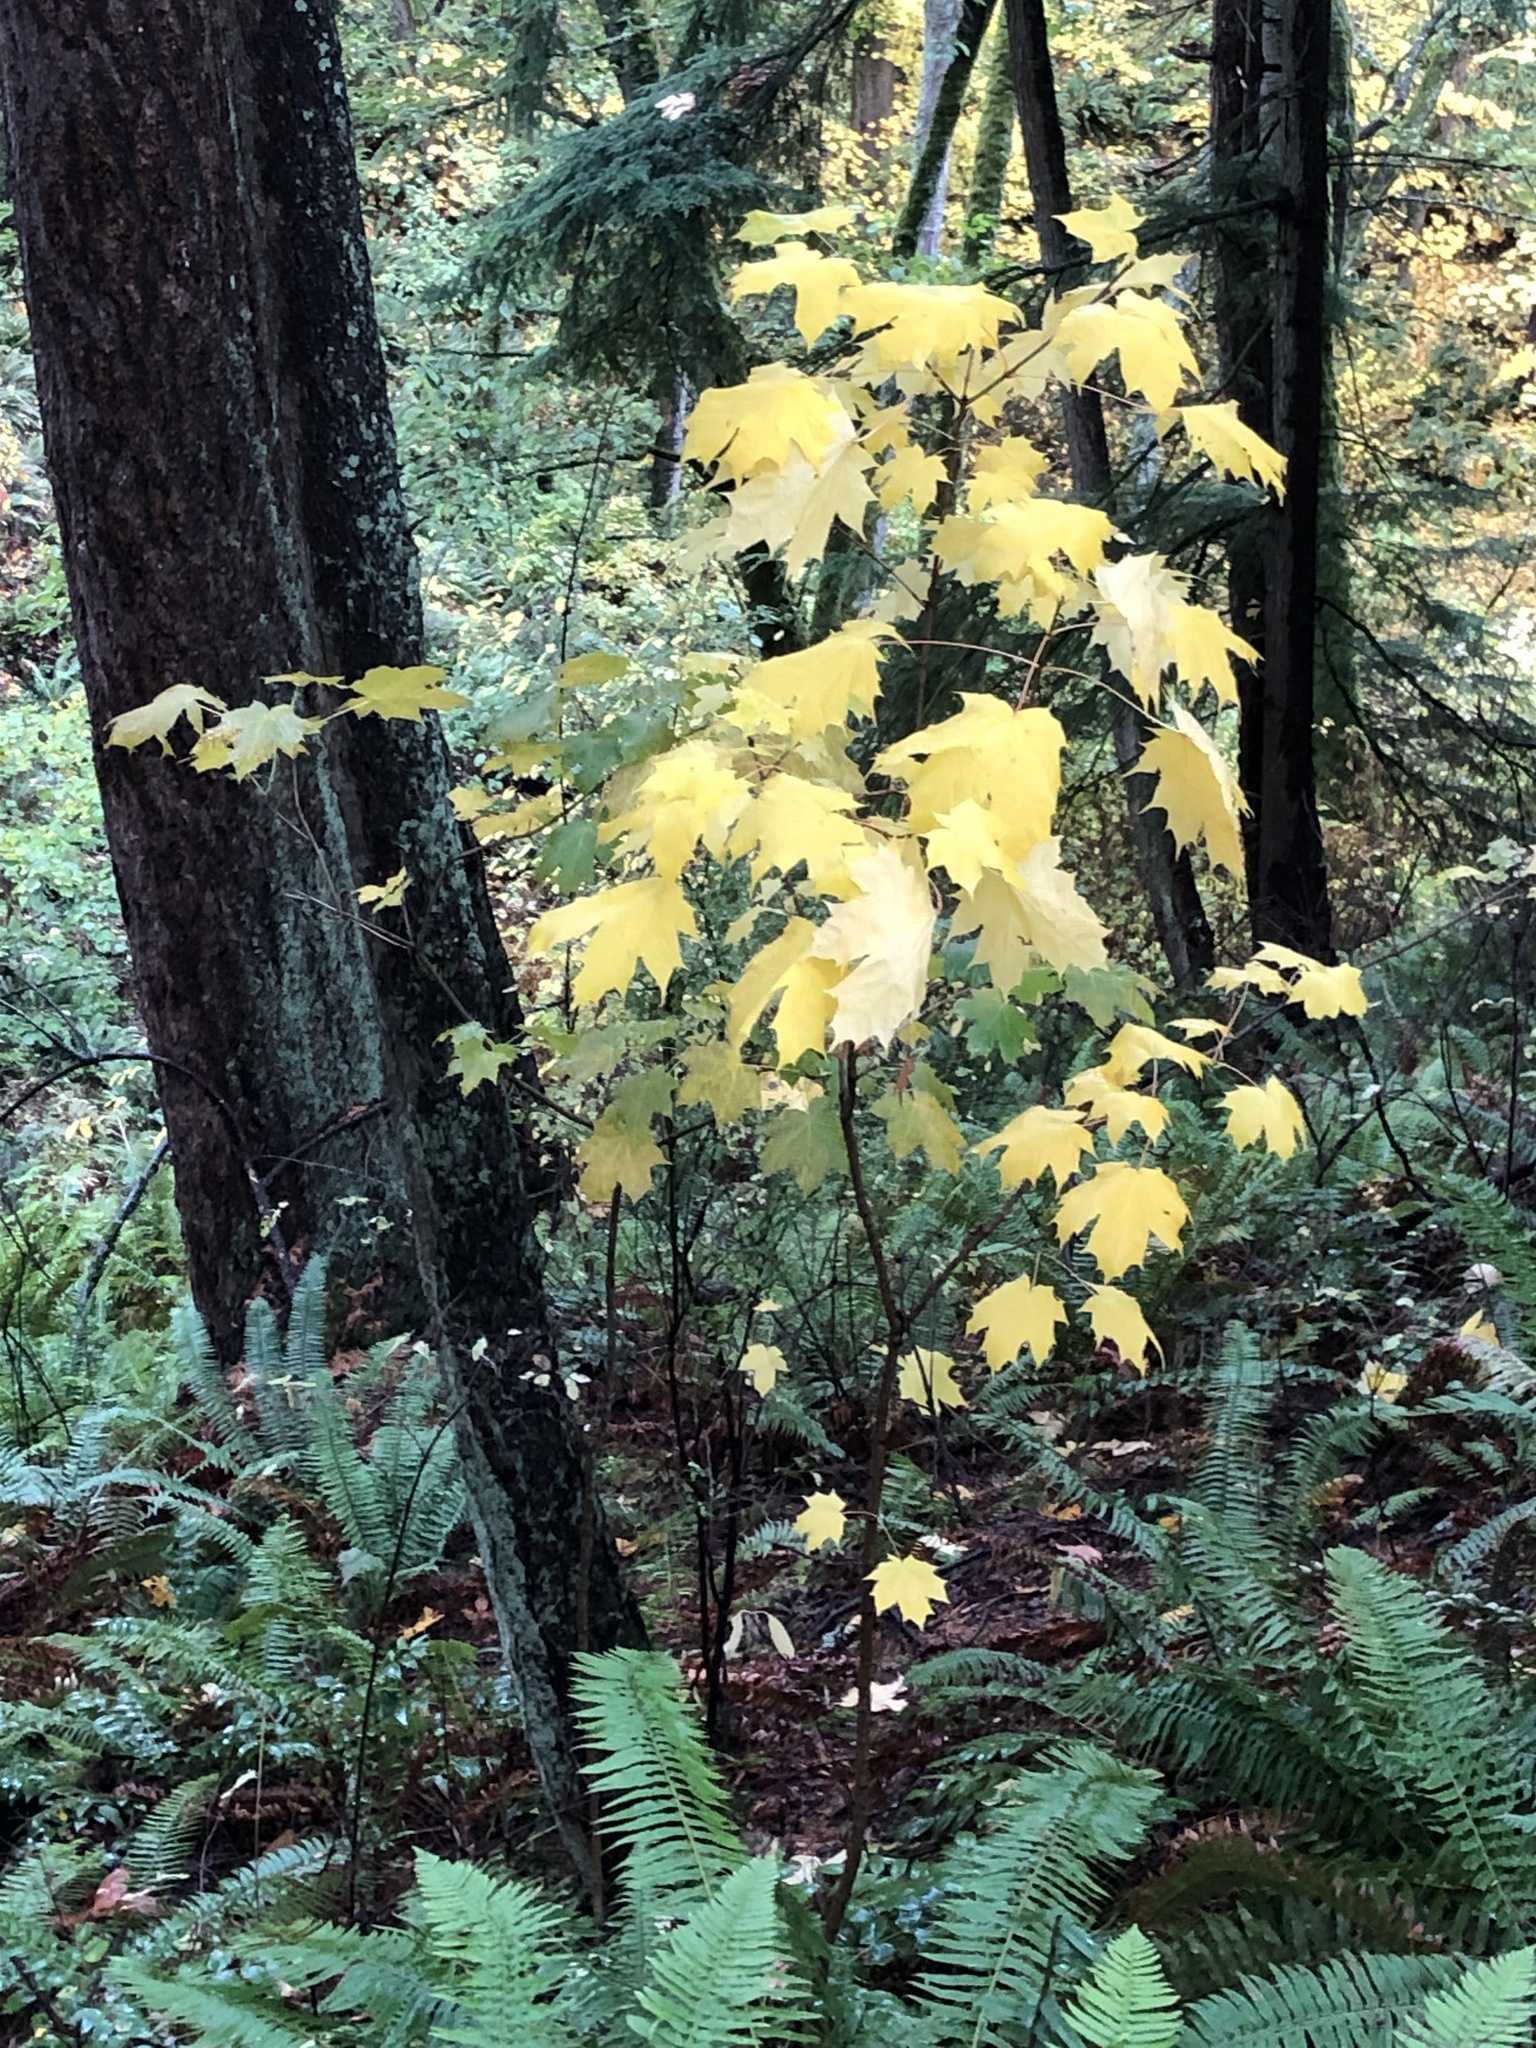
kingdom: Plantae
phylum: Tracheophyta
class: Magnoliopsida
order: Sapindales
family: Sapindaceae
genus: Acer
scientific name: Acer platanoides
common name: Norway maple
